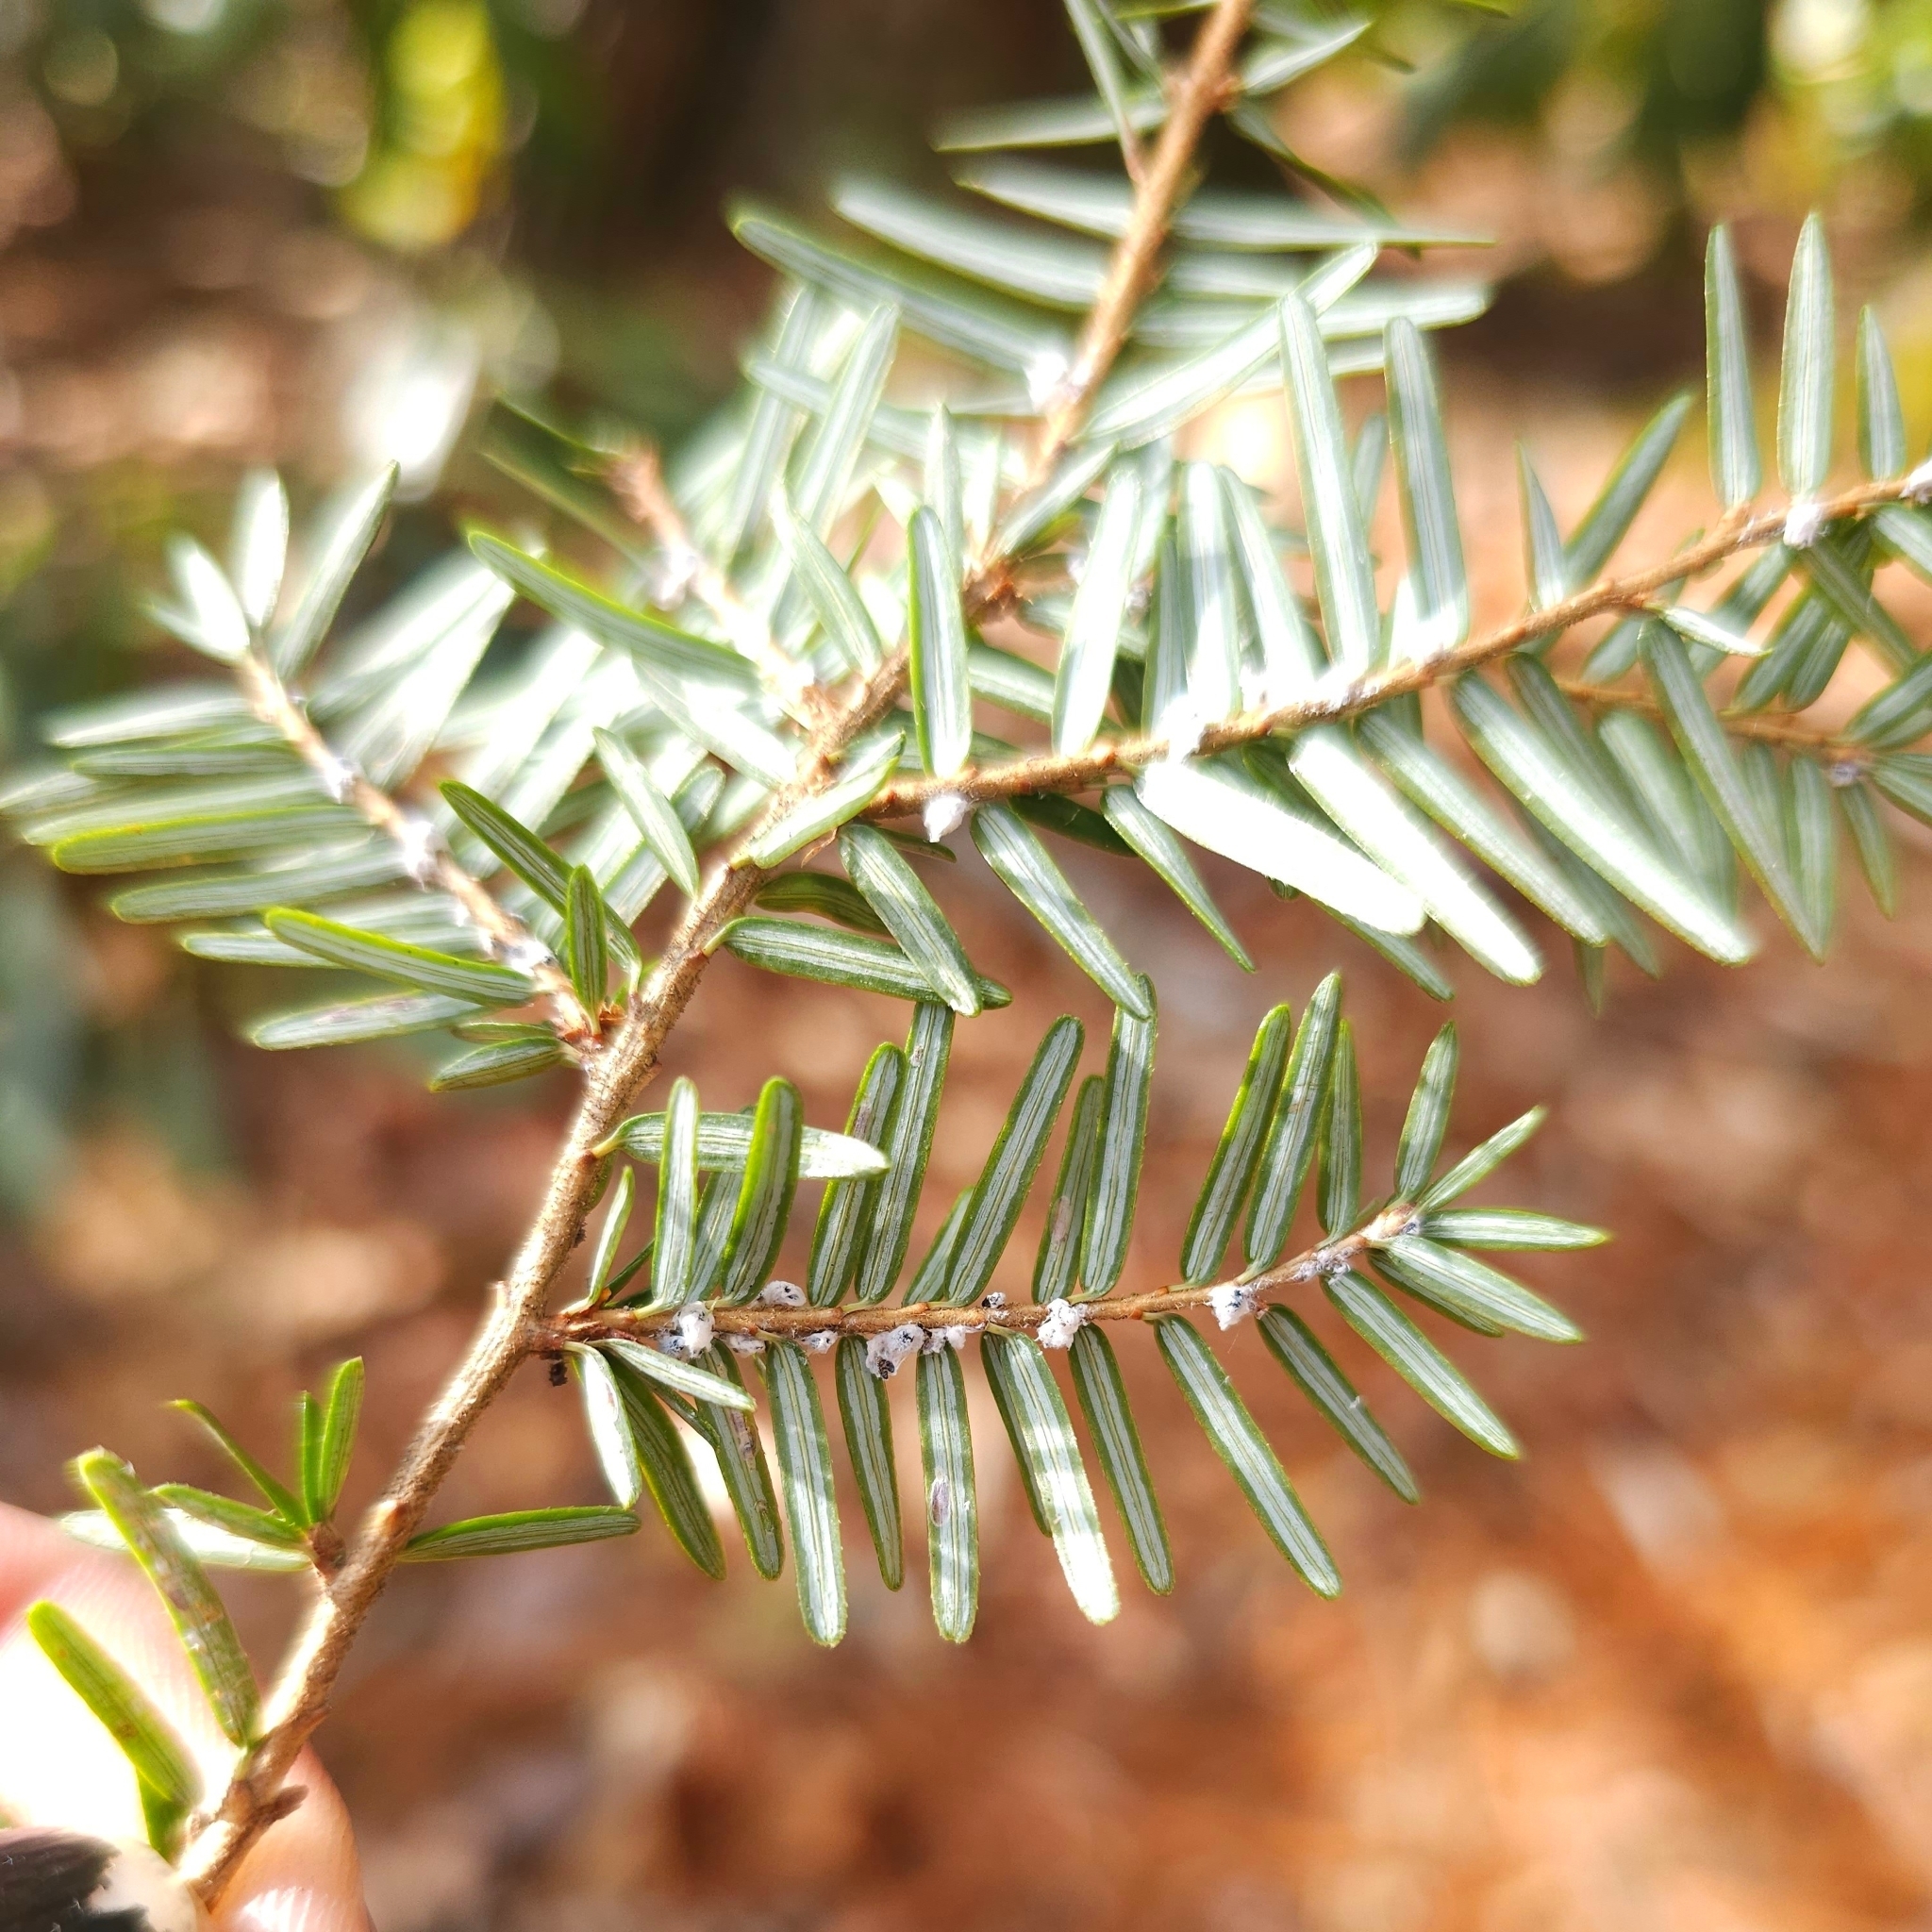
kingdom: Animalia
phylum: Arthropoda
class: Insecta
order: Hemiptera
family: Adelgidae
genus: Adelges
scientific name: Adelges tsugae
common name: Hemlock woolly adelgid
